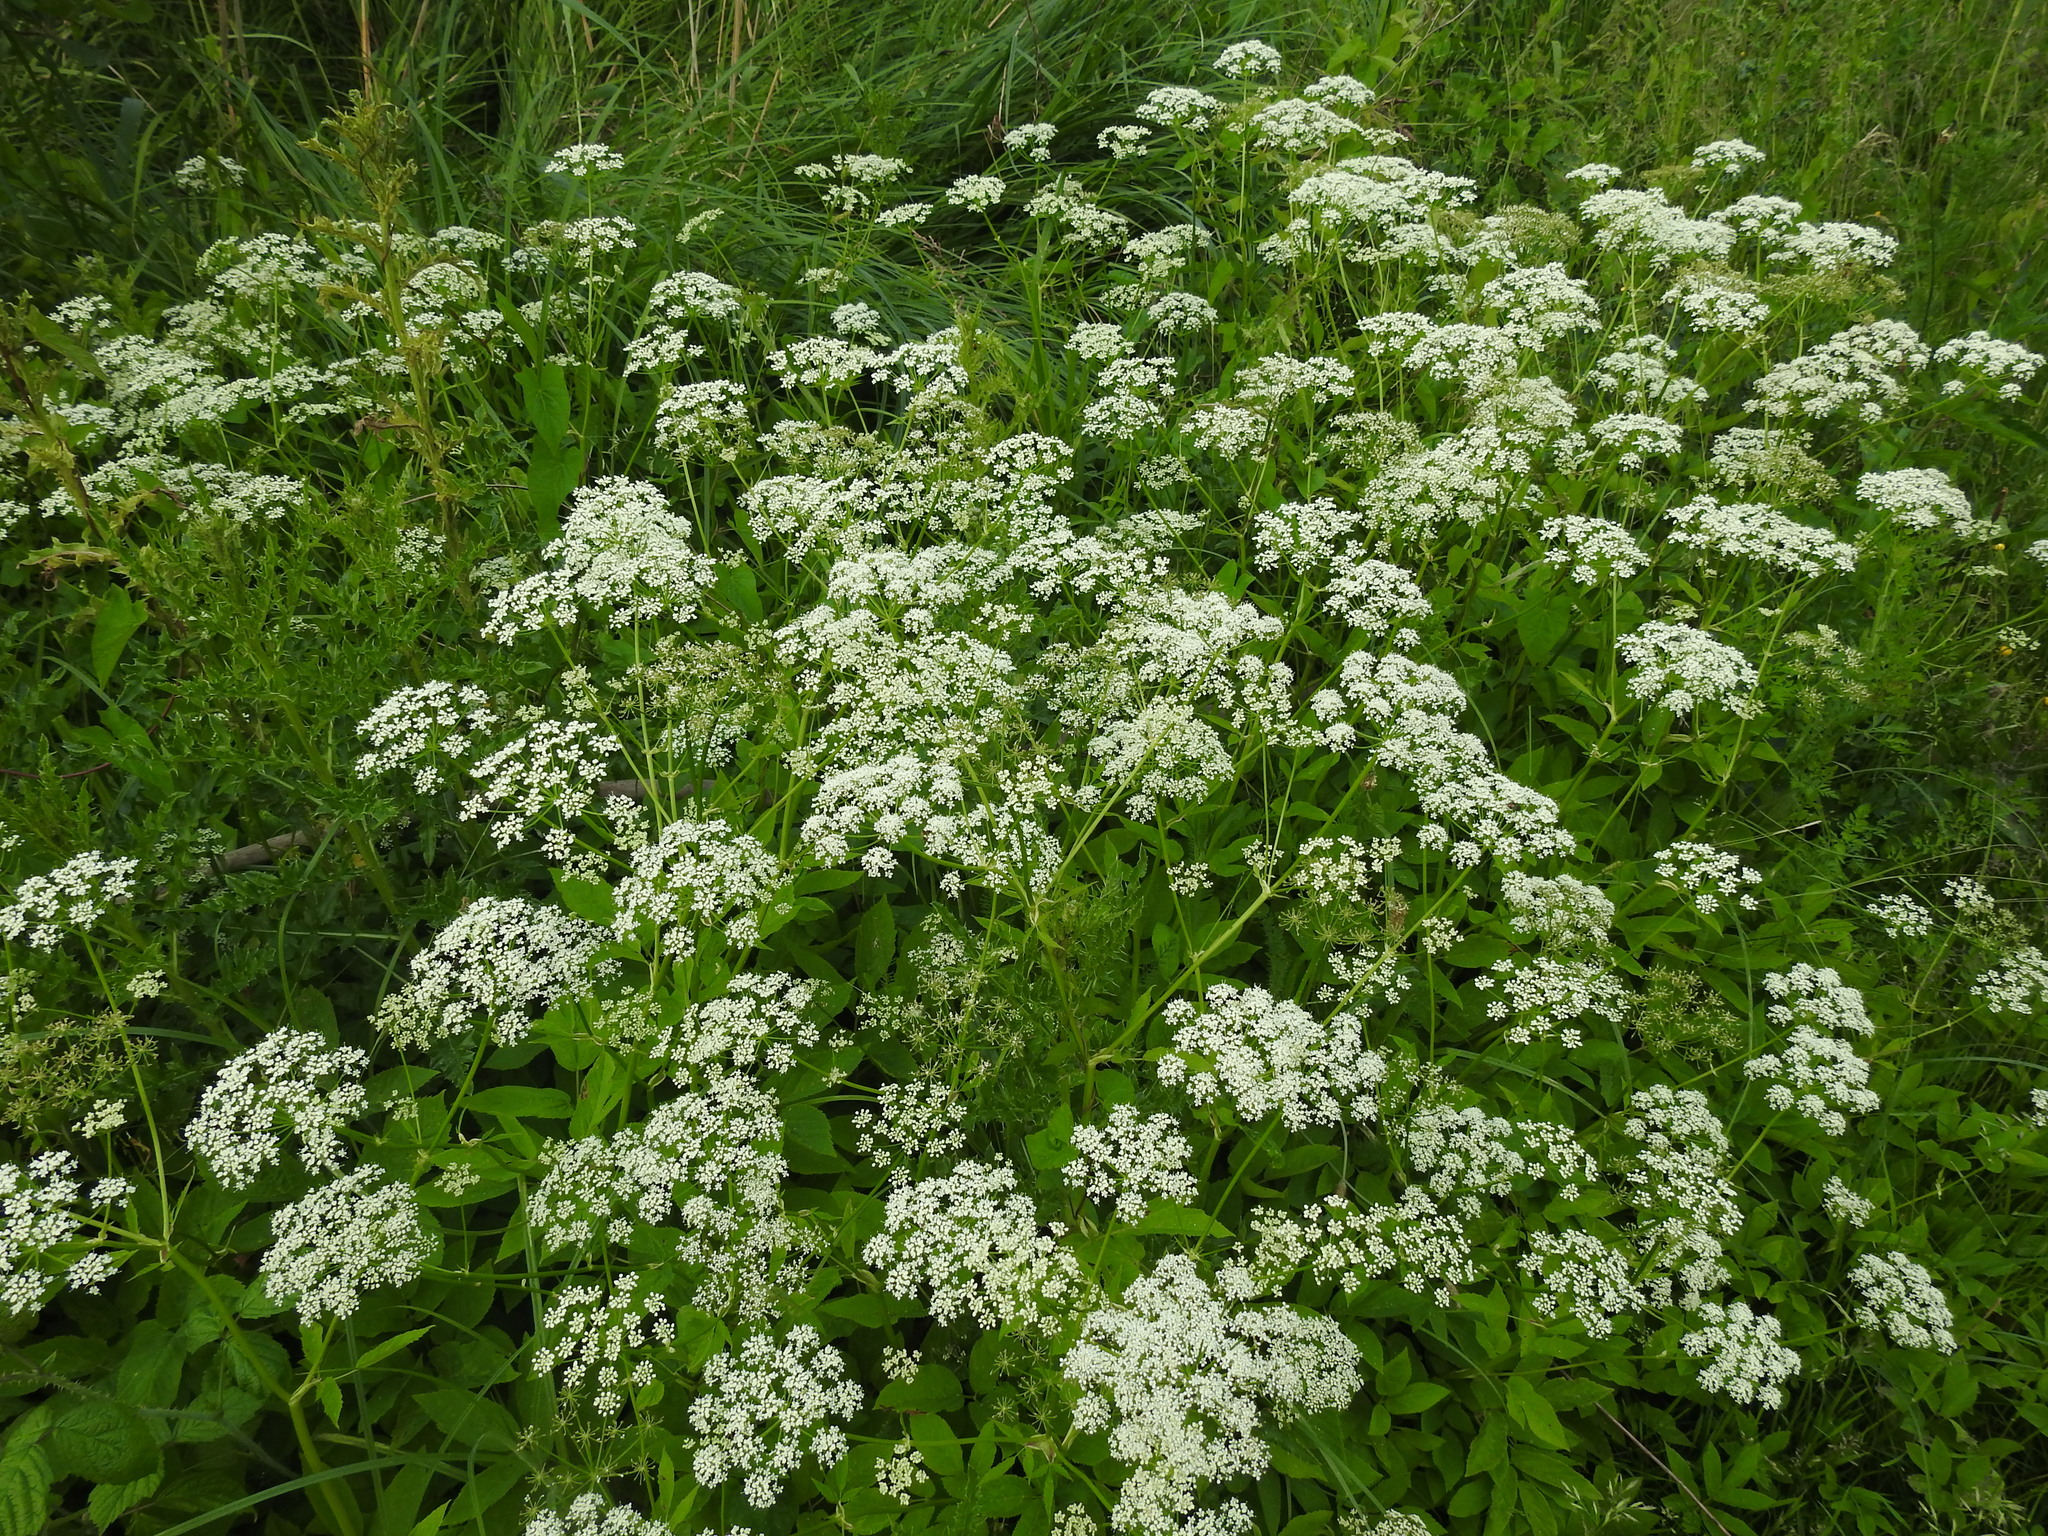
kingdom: Plantae
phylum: Tracheophyta
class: Magnoliopsida
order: Apiales
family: Apiaceae
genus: Aegopodium
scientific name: Aegopodium podagraria
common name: Ground-elder
